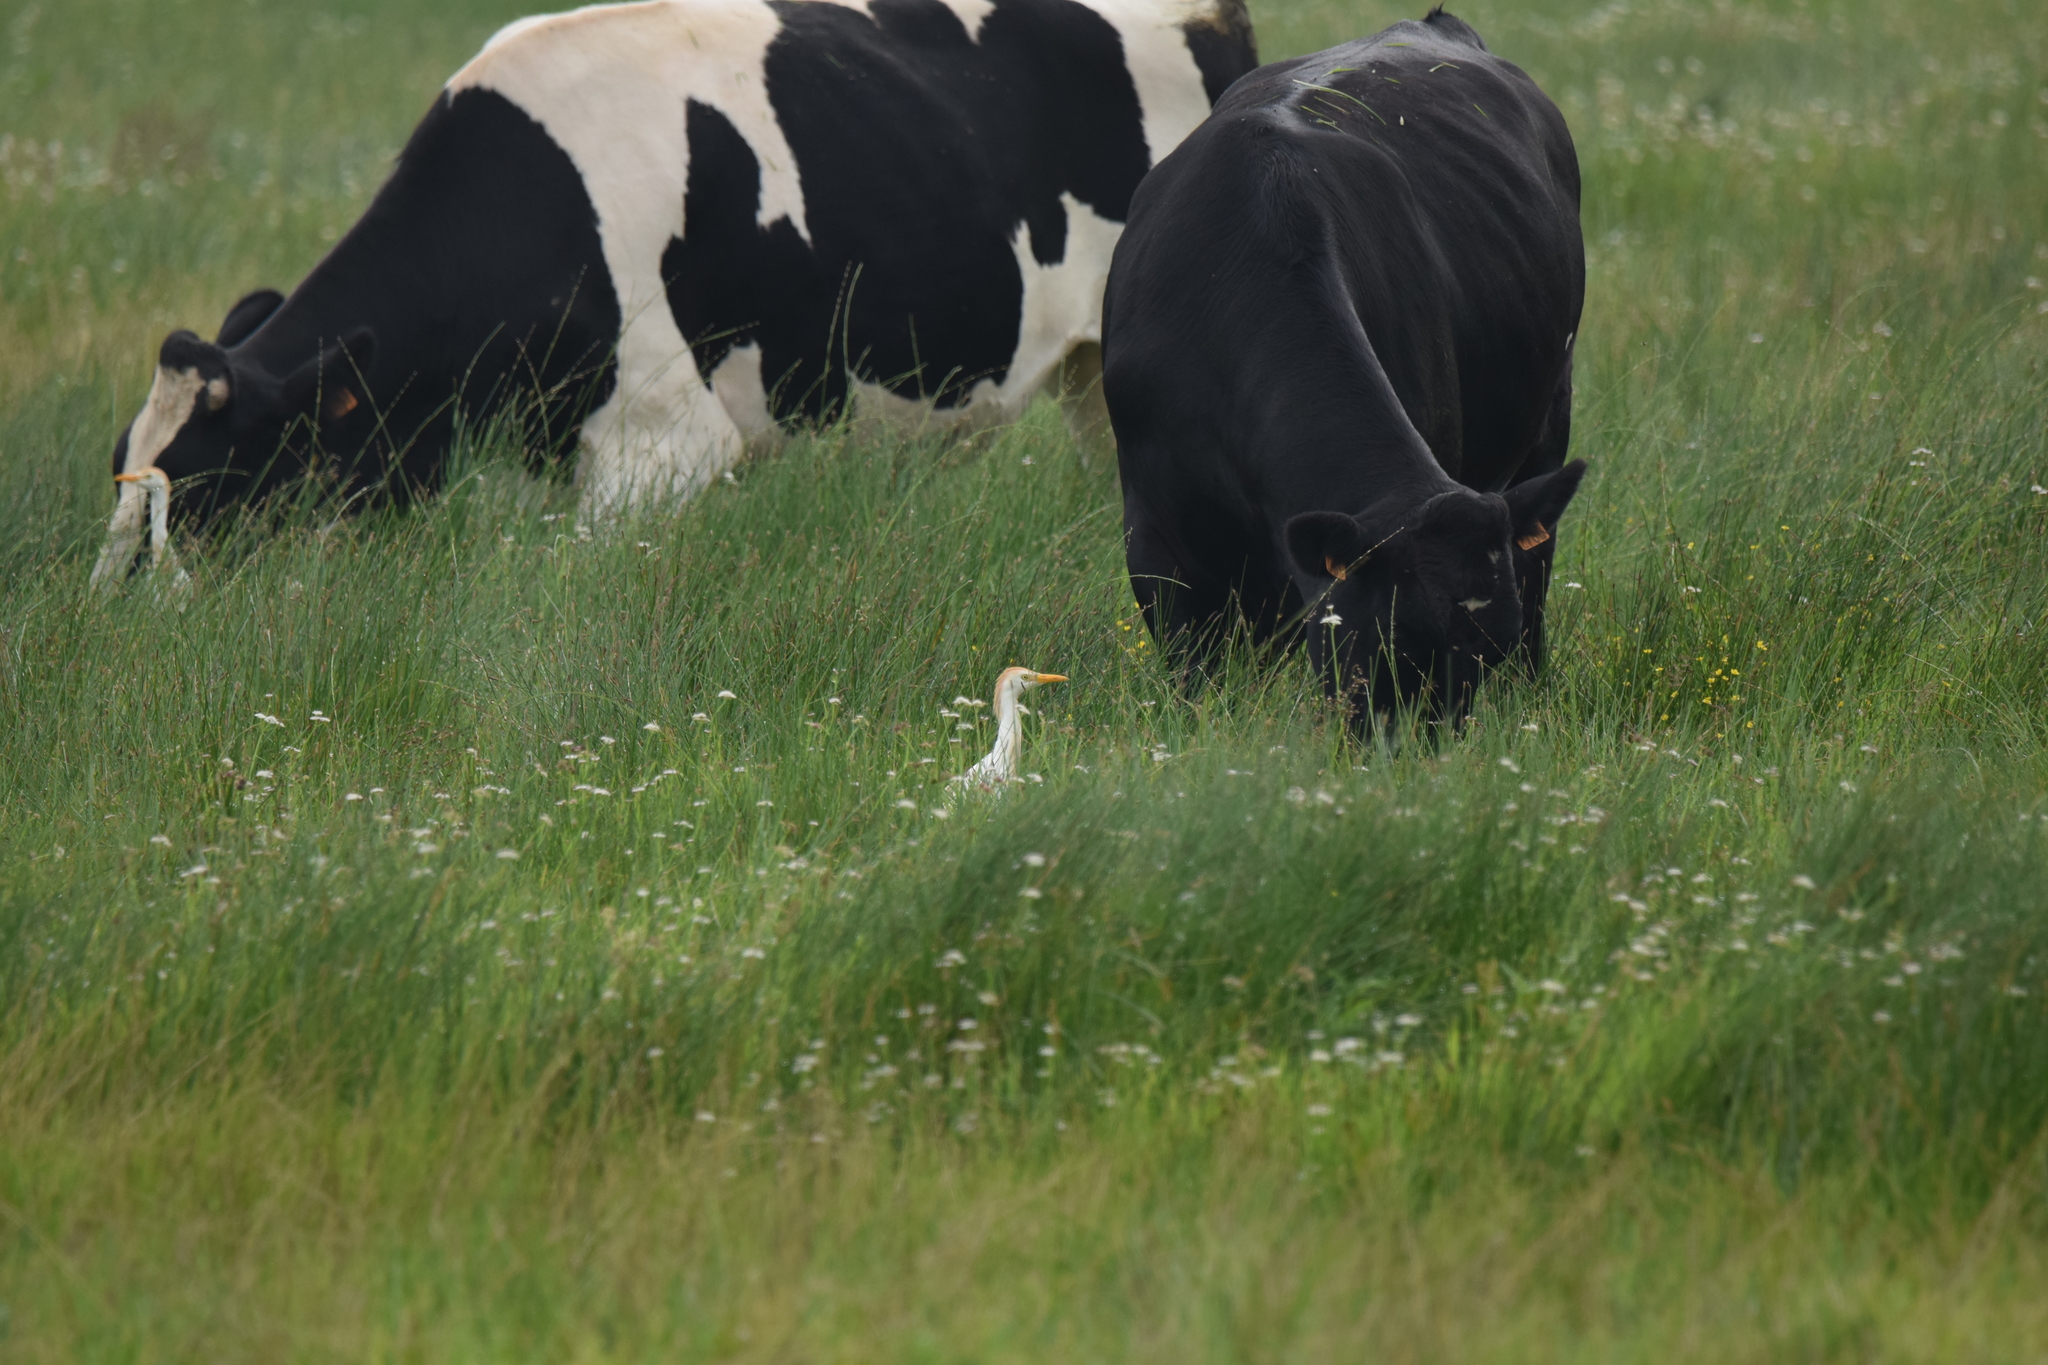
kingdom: Animalia
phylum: Chordata
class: Aves
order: Pelecaniformes
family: Ardeidae
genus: Bubulcus
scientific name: Bubulcus ibis
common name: Cattle egret
